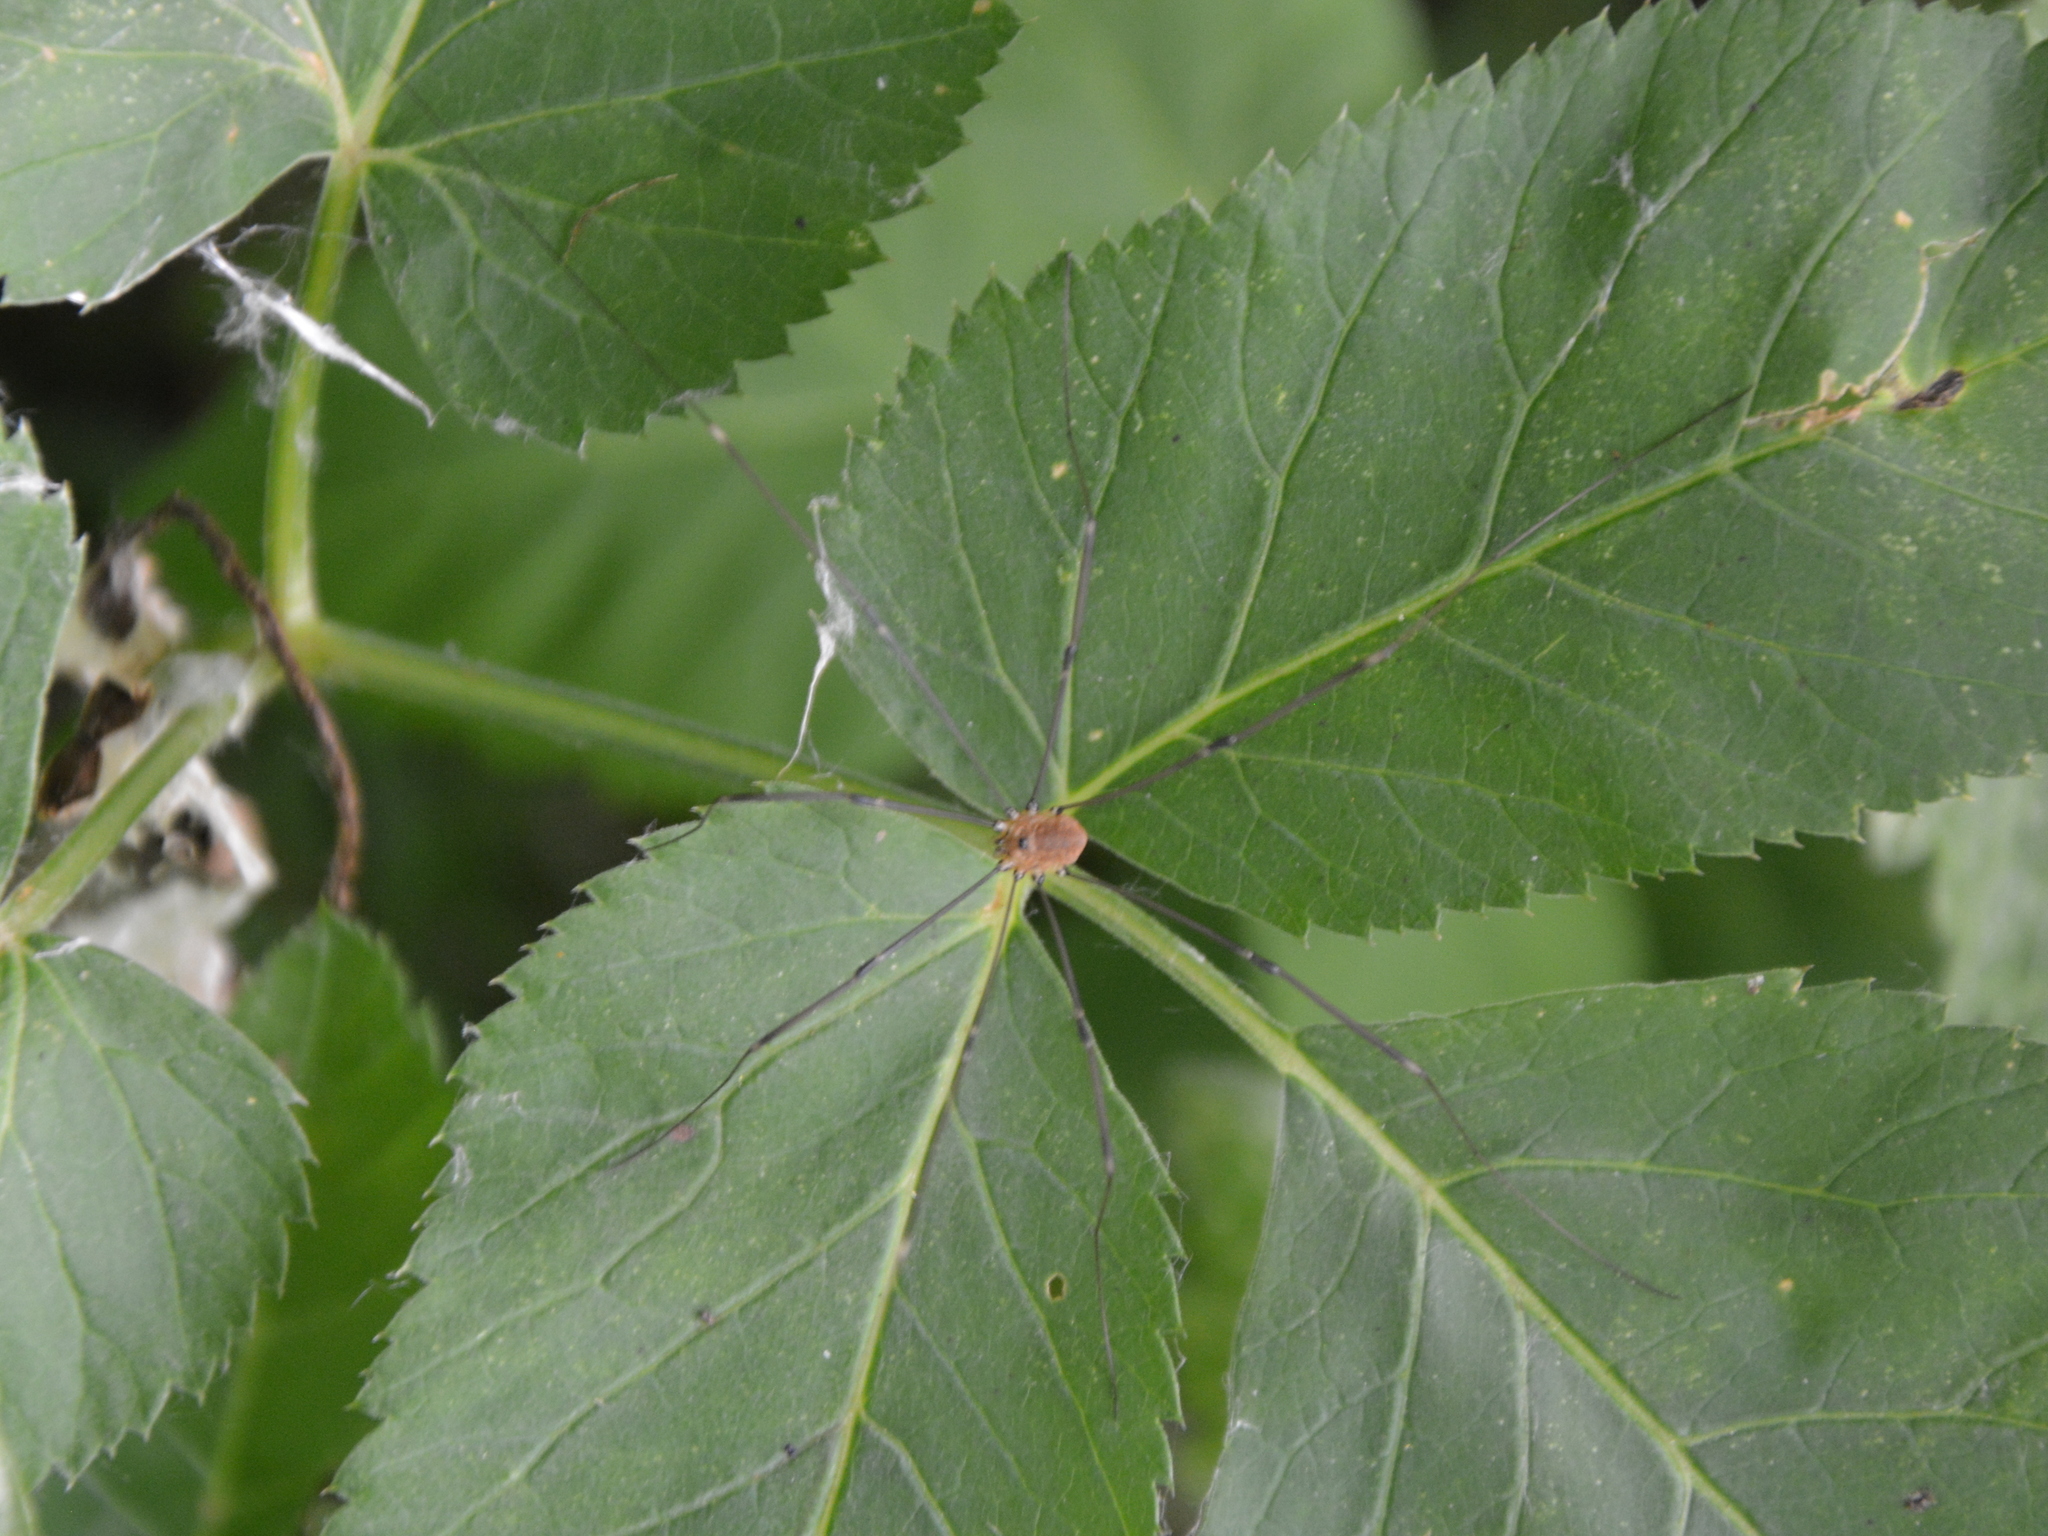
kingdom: Animalia
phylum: Arthropoda
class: Arachnida
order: Opiliones
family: Sclerosomatidae
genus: Leiobunum
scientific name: Leiobunum rotundum
